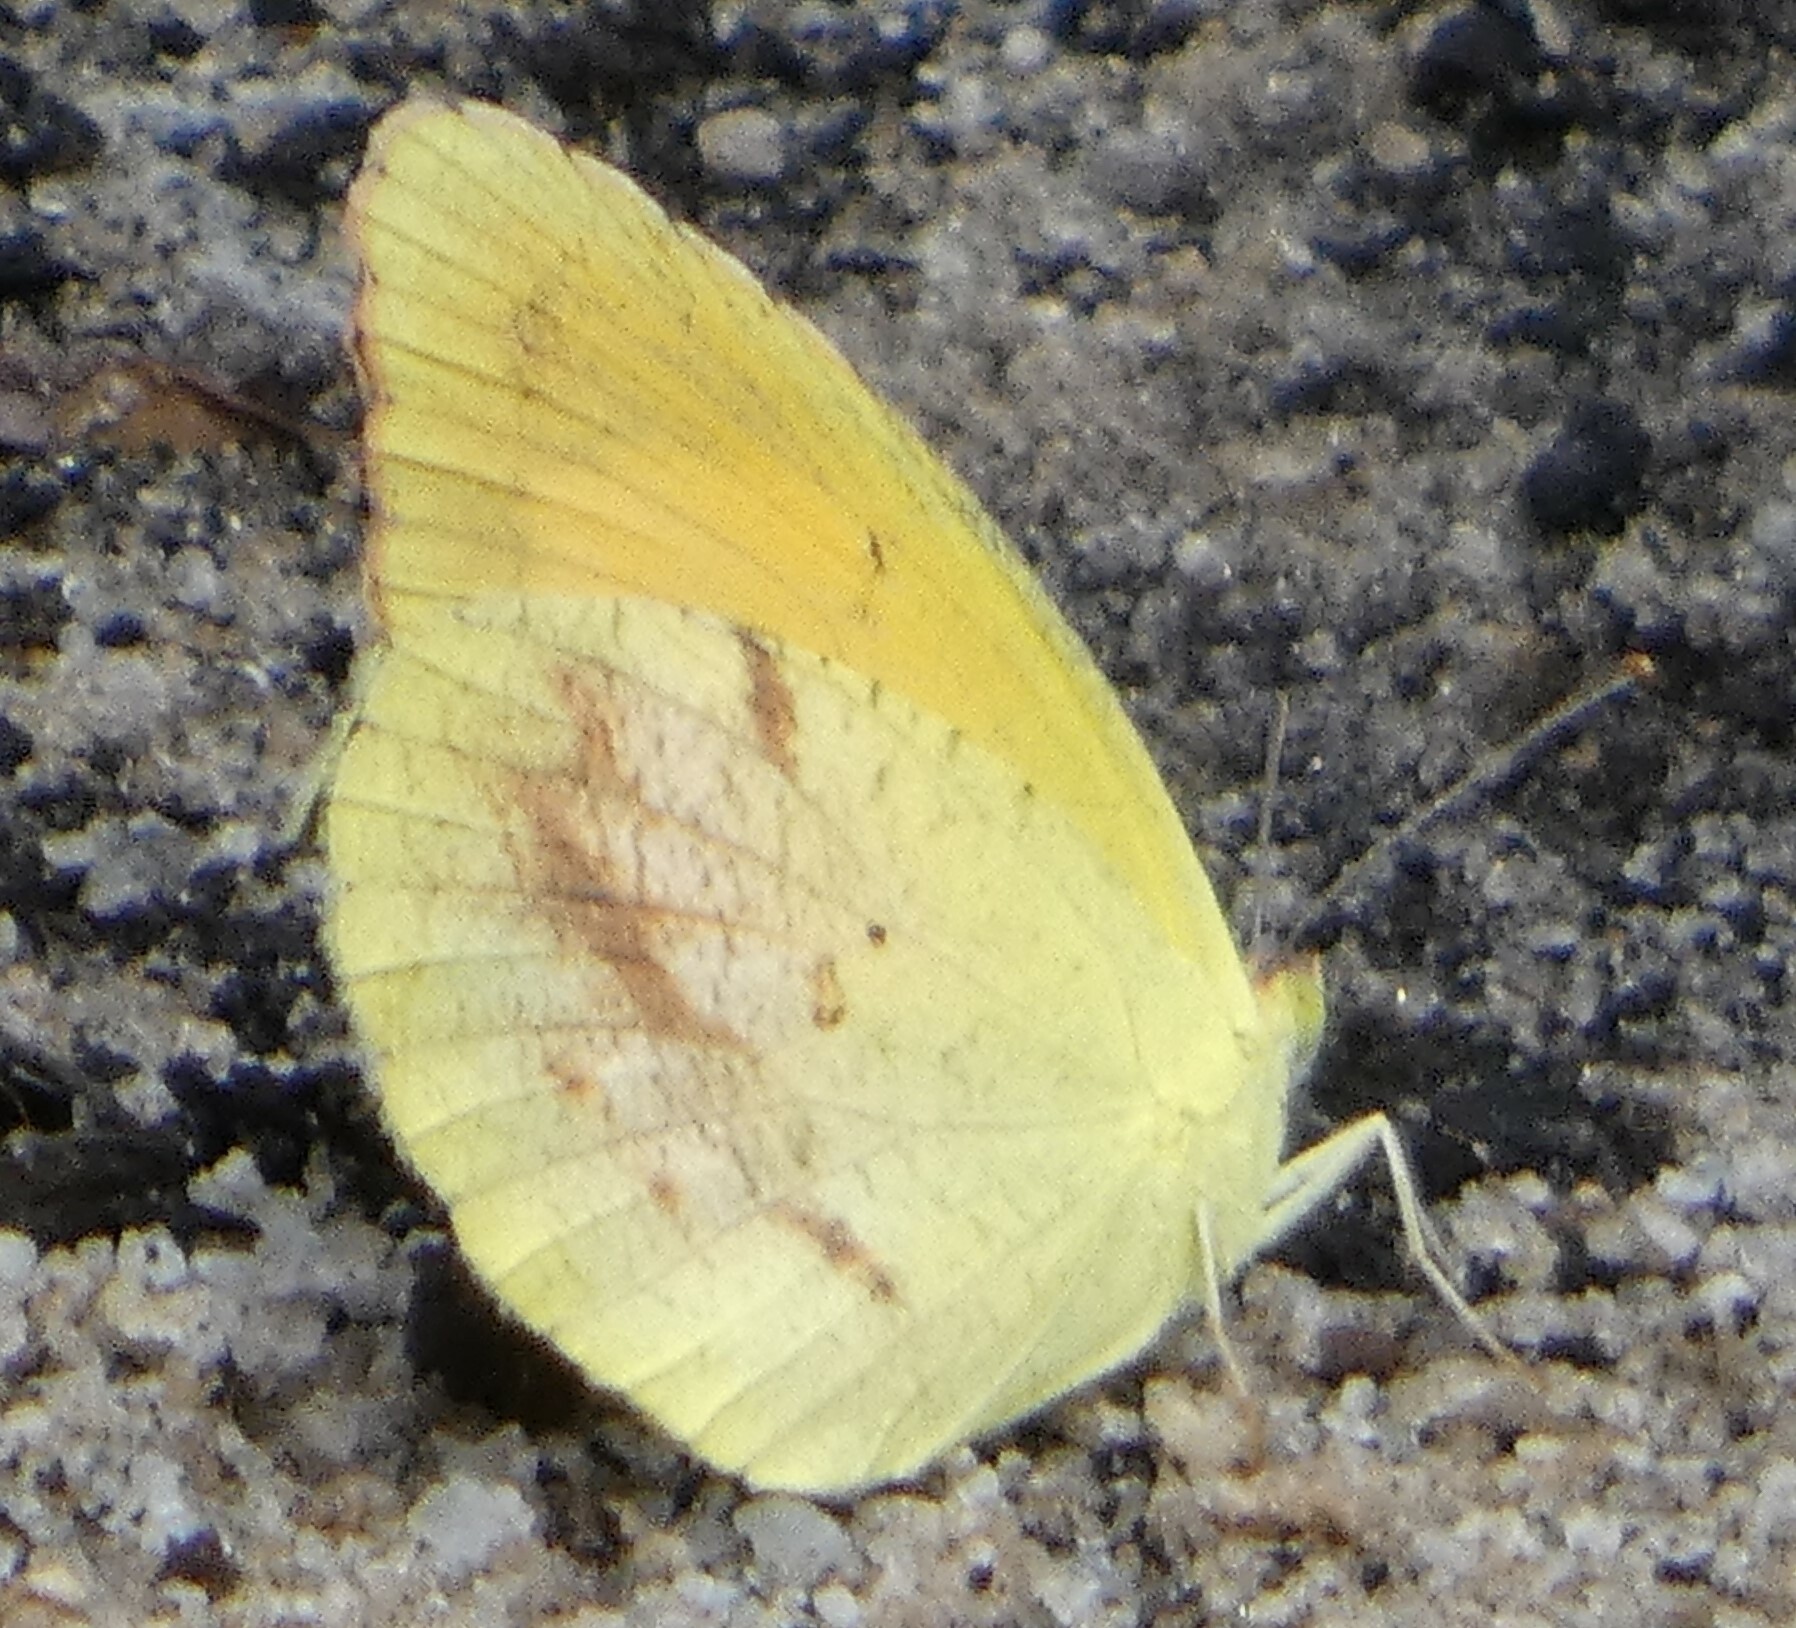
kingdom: Animalia
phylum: Arthropoda
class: Insecta
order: Lepidoptera
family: Pieridae
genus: Abaeis
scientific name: Abaeis nicippe
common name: Sleepy orange
